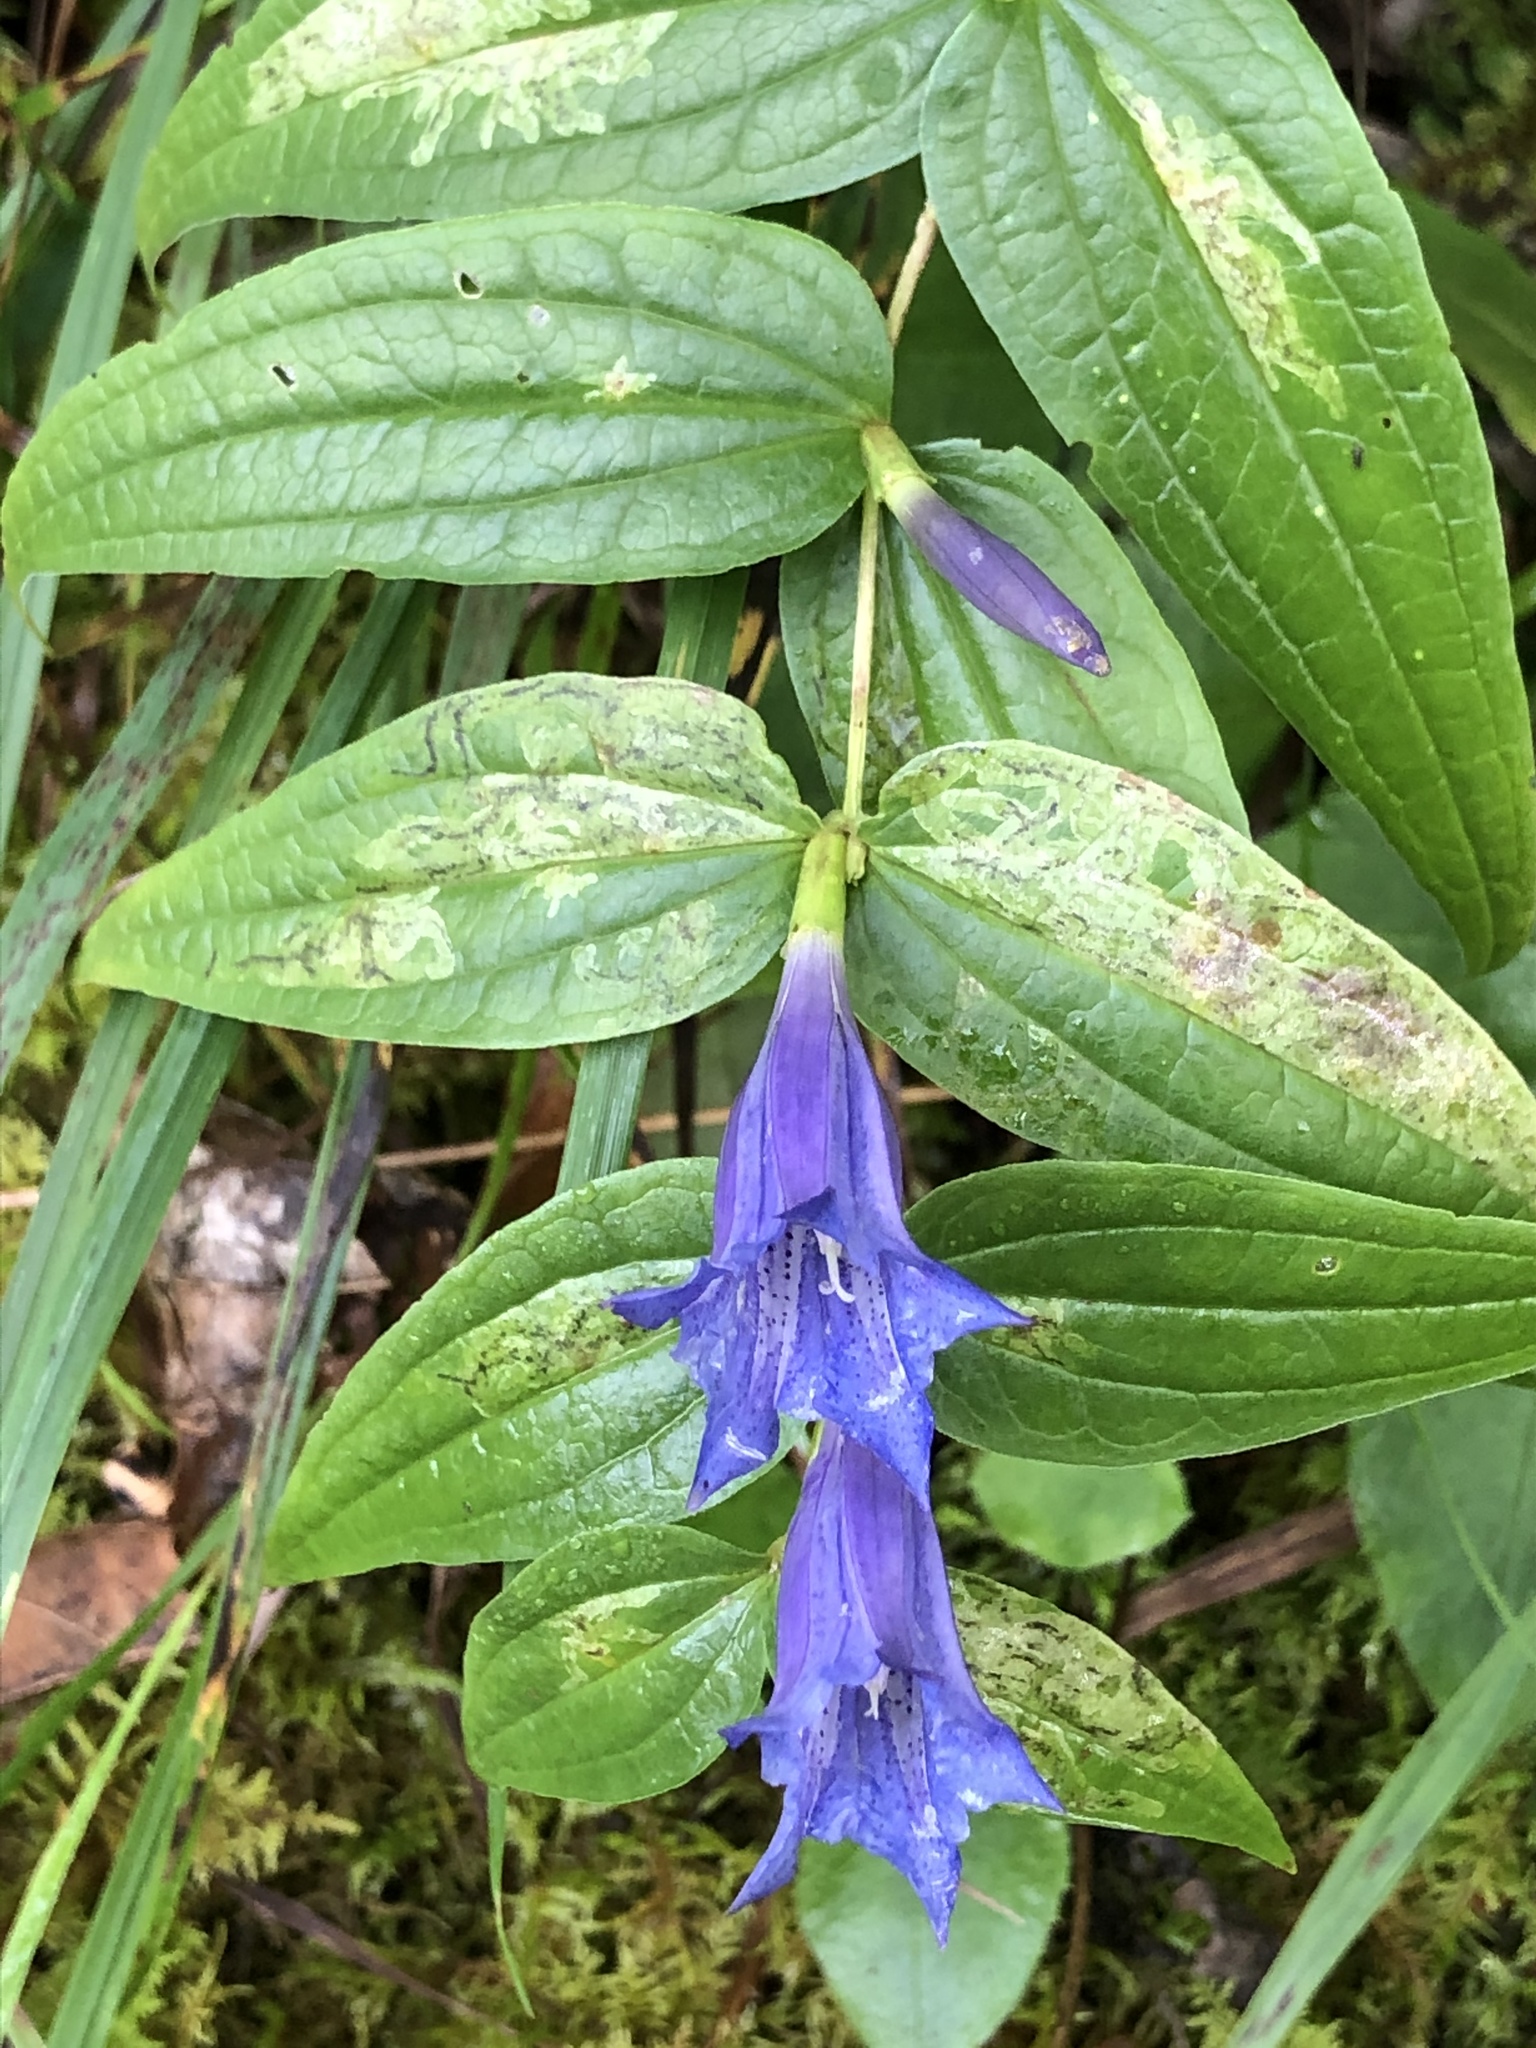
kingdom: Plantae
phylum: Tracheophyta
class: Magnoliopsida
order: Gentianales
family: Gentianaceae
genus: Gentiana
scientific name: Gentiana asclepiadea
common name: Willow gentian
